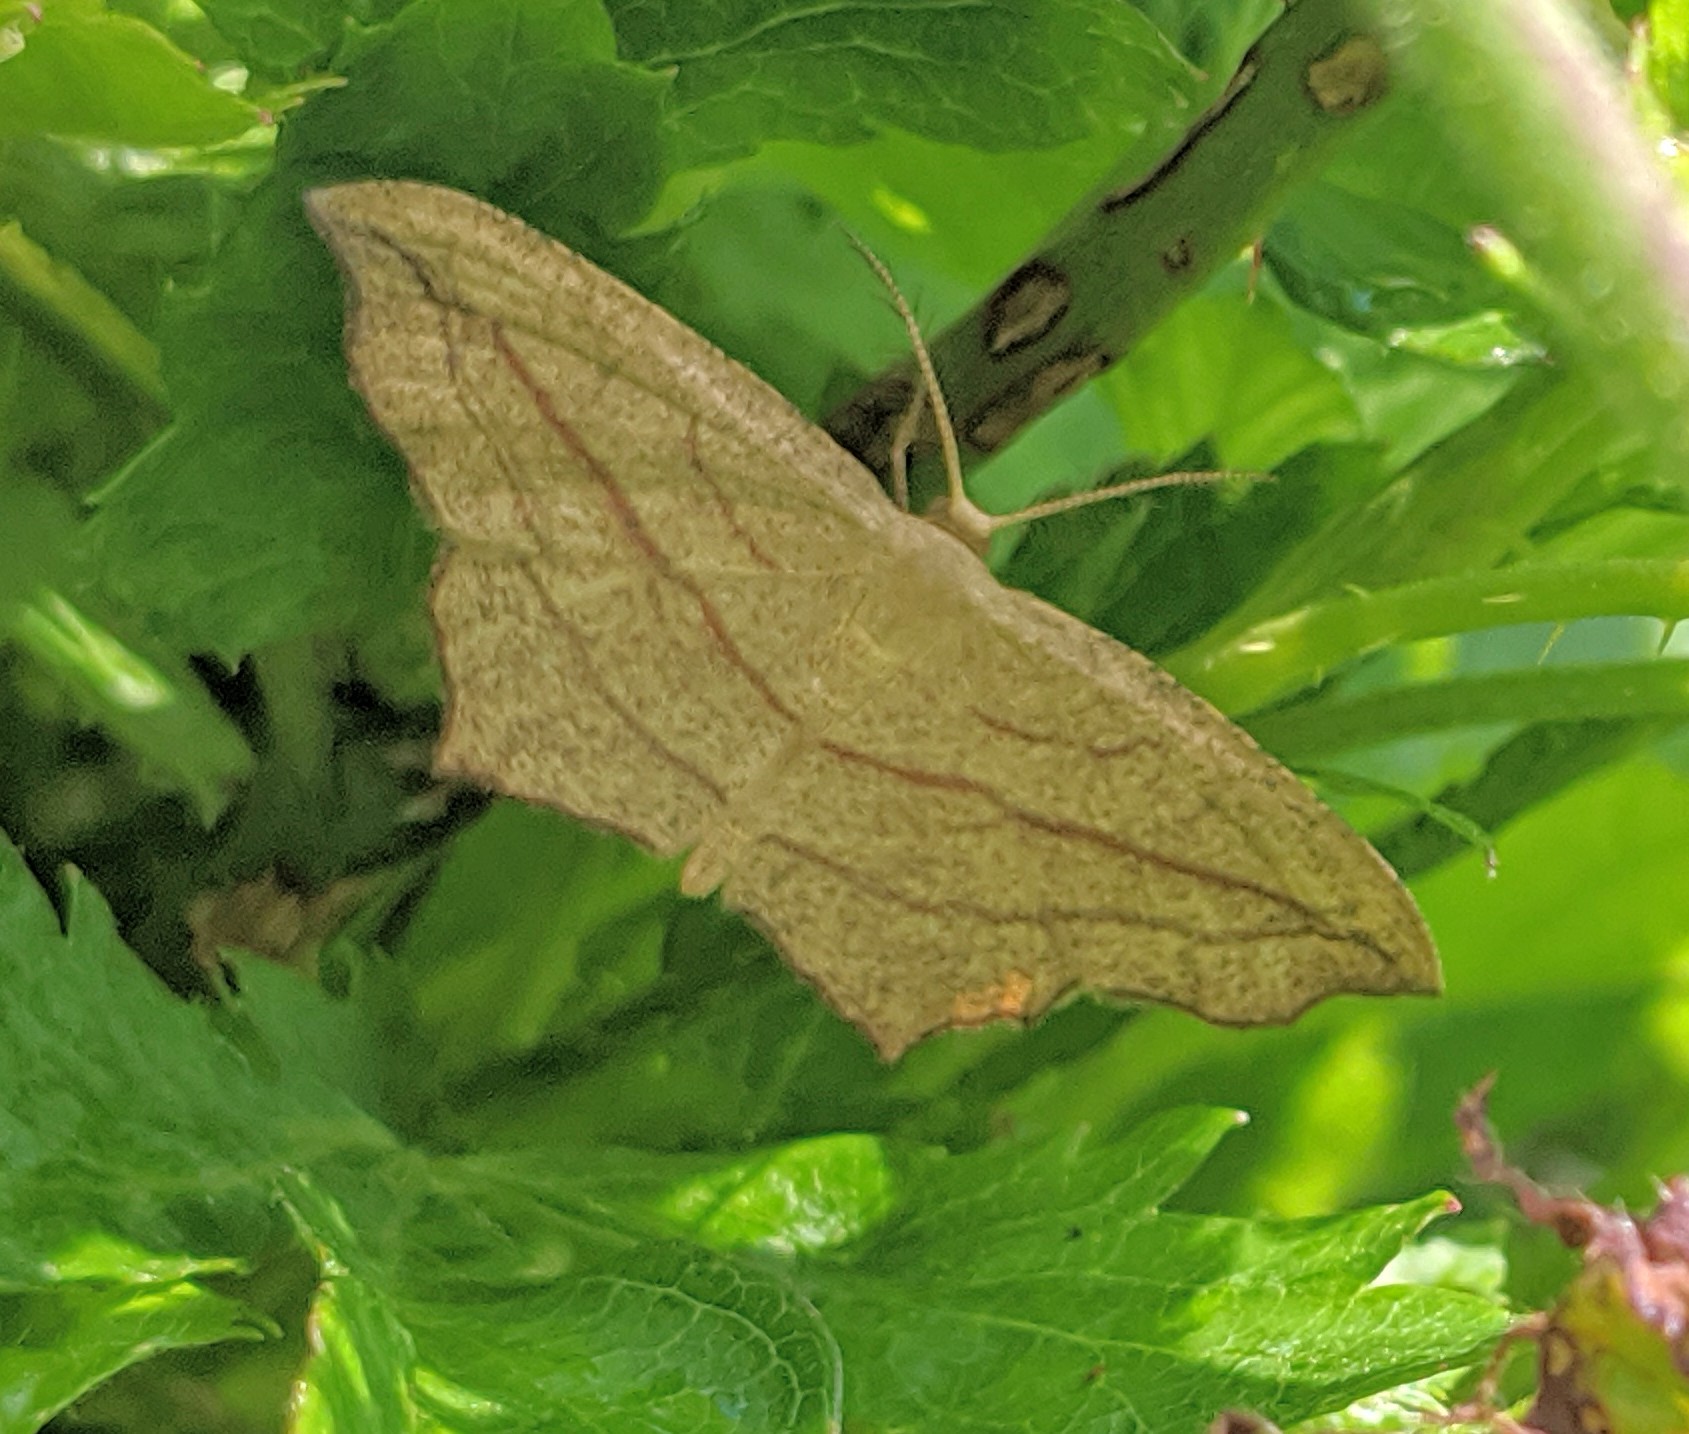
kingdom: Animalia
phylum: Arthropoda
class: Insecta
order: Lepidoptera
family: Geometridae
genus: Timandra
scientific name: Timandra amaturaria
